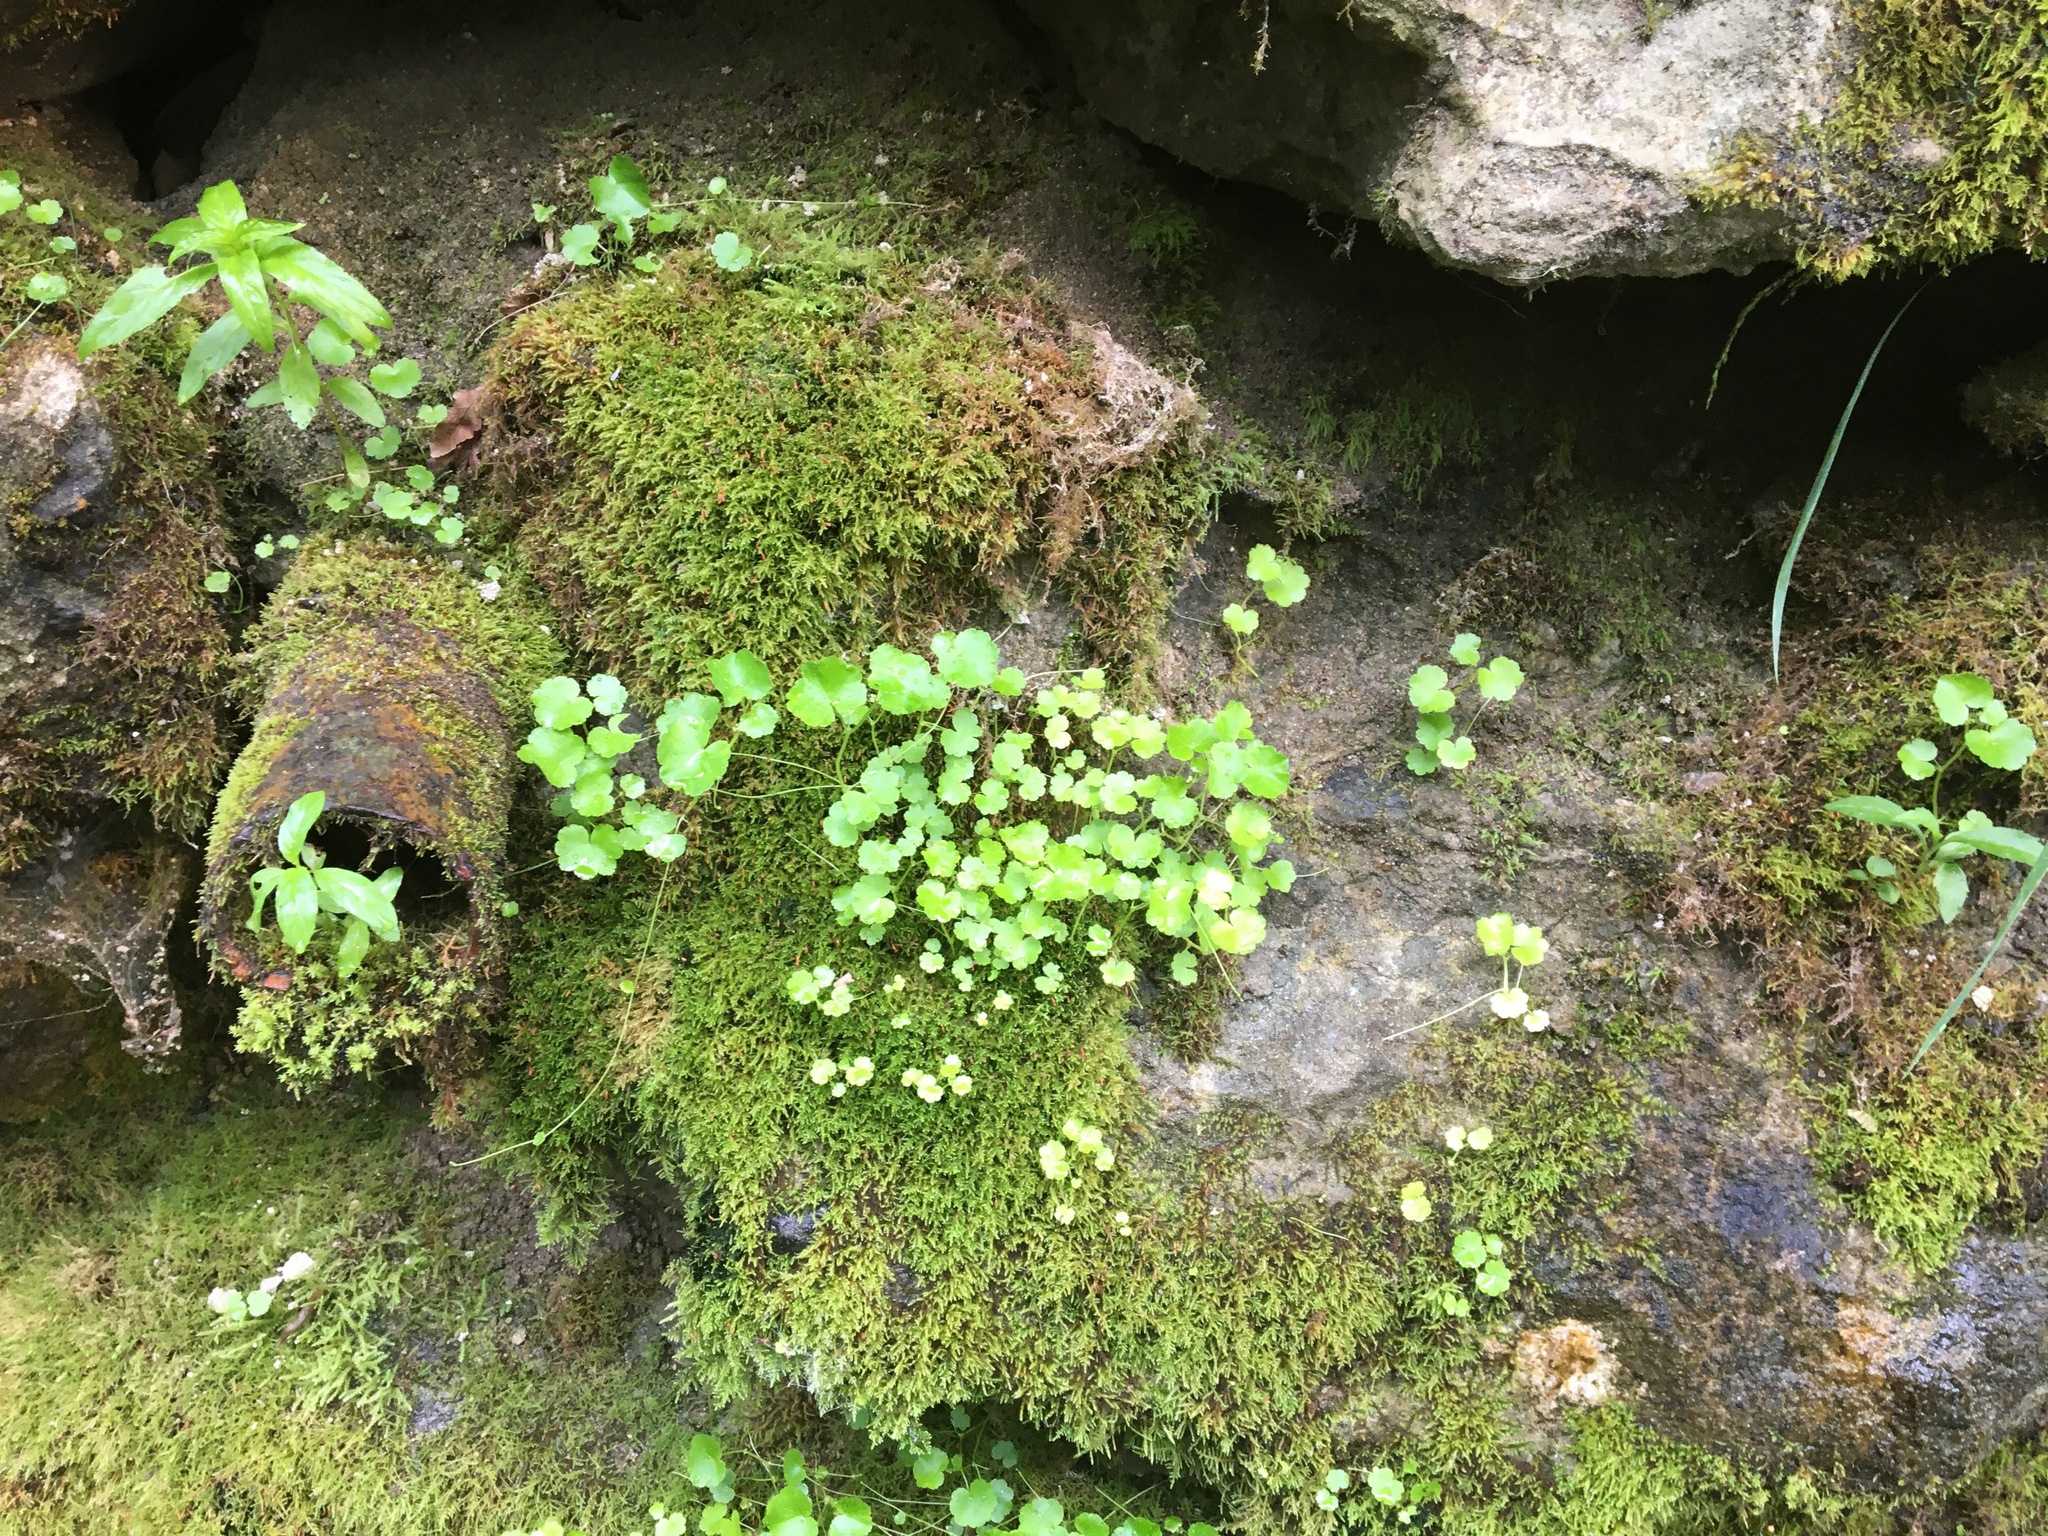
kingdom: Plantae
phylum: Tracheophyta
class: Magnoliopsida
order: Apiales
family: Araliaceae
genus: Hydrocotyle
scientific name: Hydrocotyle americana
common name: American water-pennywort
